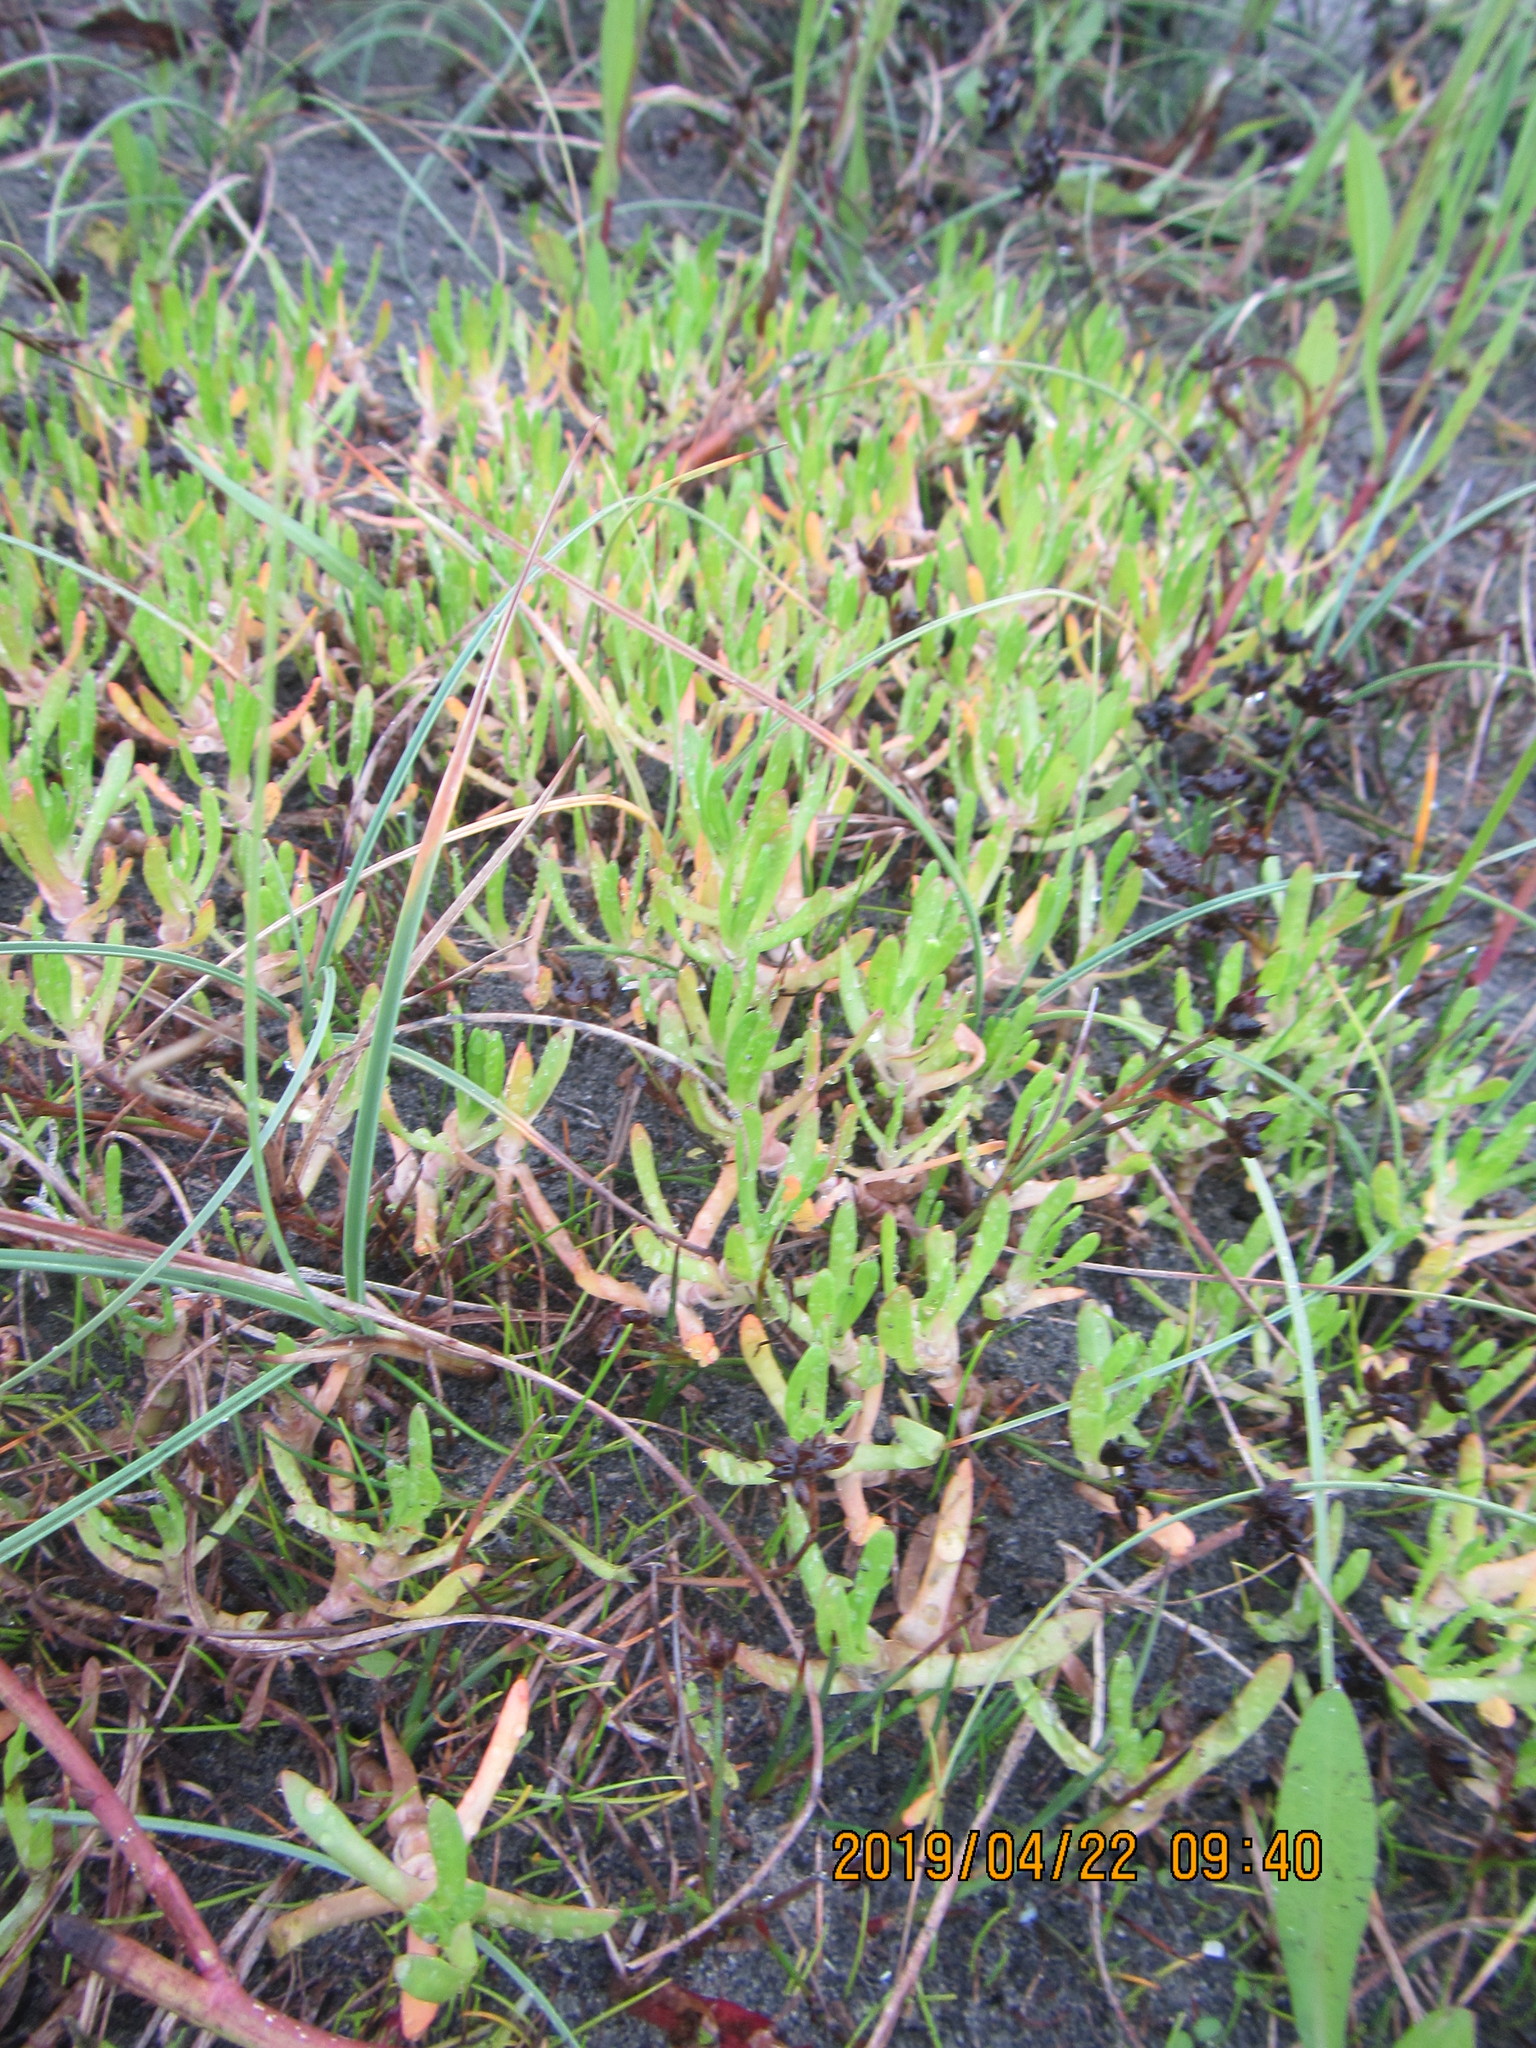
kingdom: Plantae
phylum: Tracheophyta
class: Magnoliopsida
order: Asterales
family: Asteraceae
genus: Cotula
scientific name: Cotula coronopifolia
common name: Buttonweed
